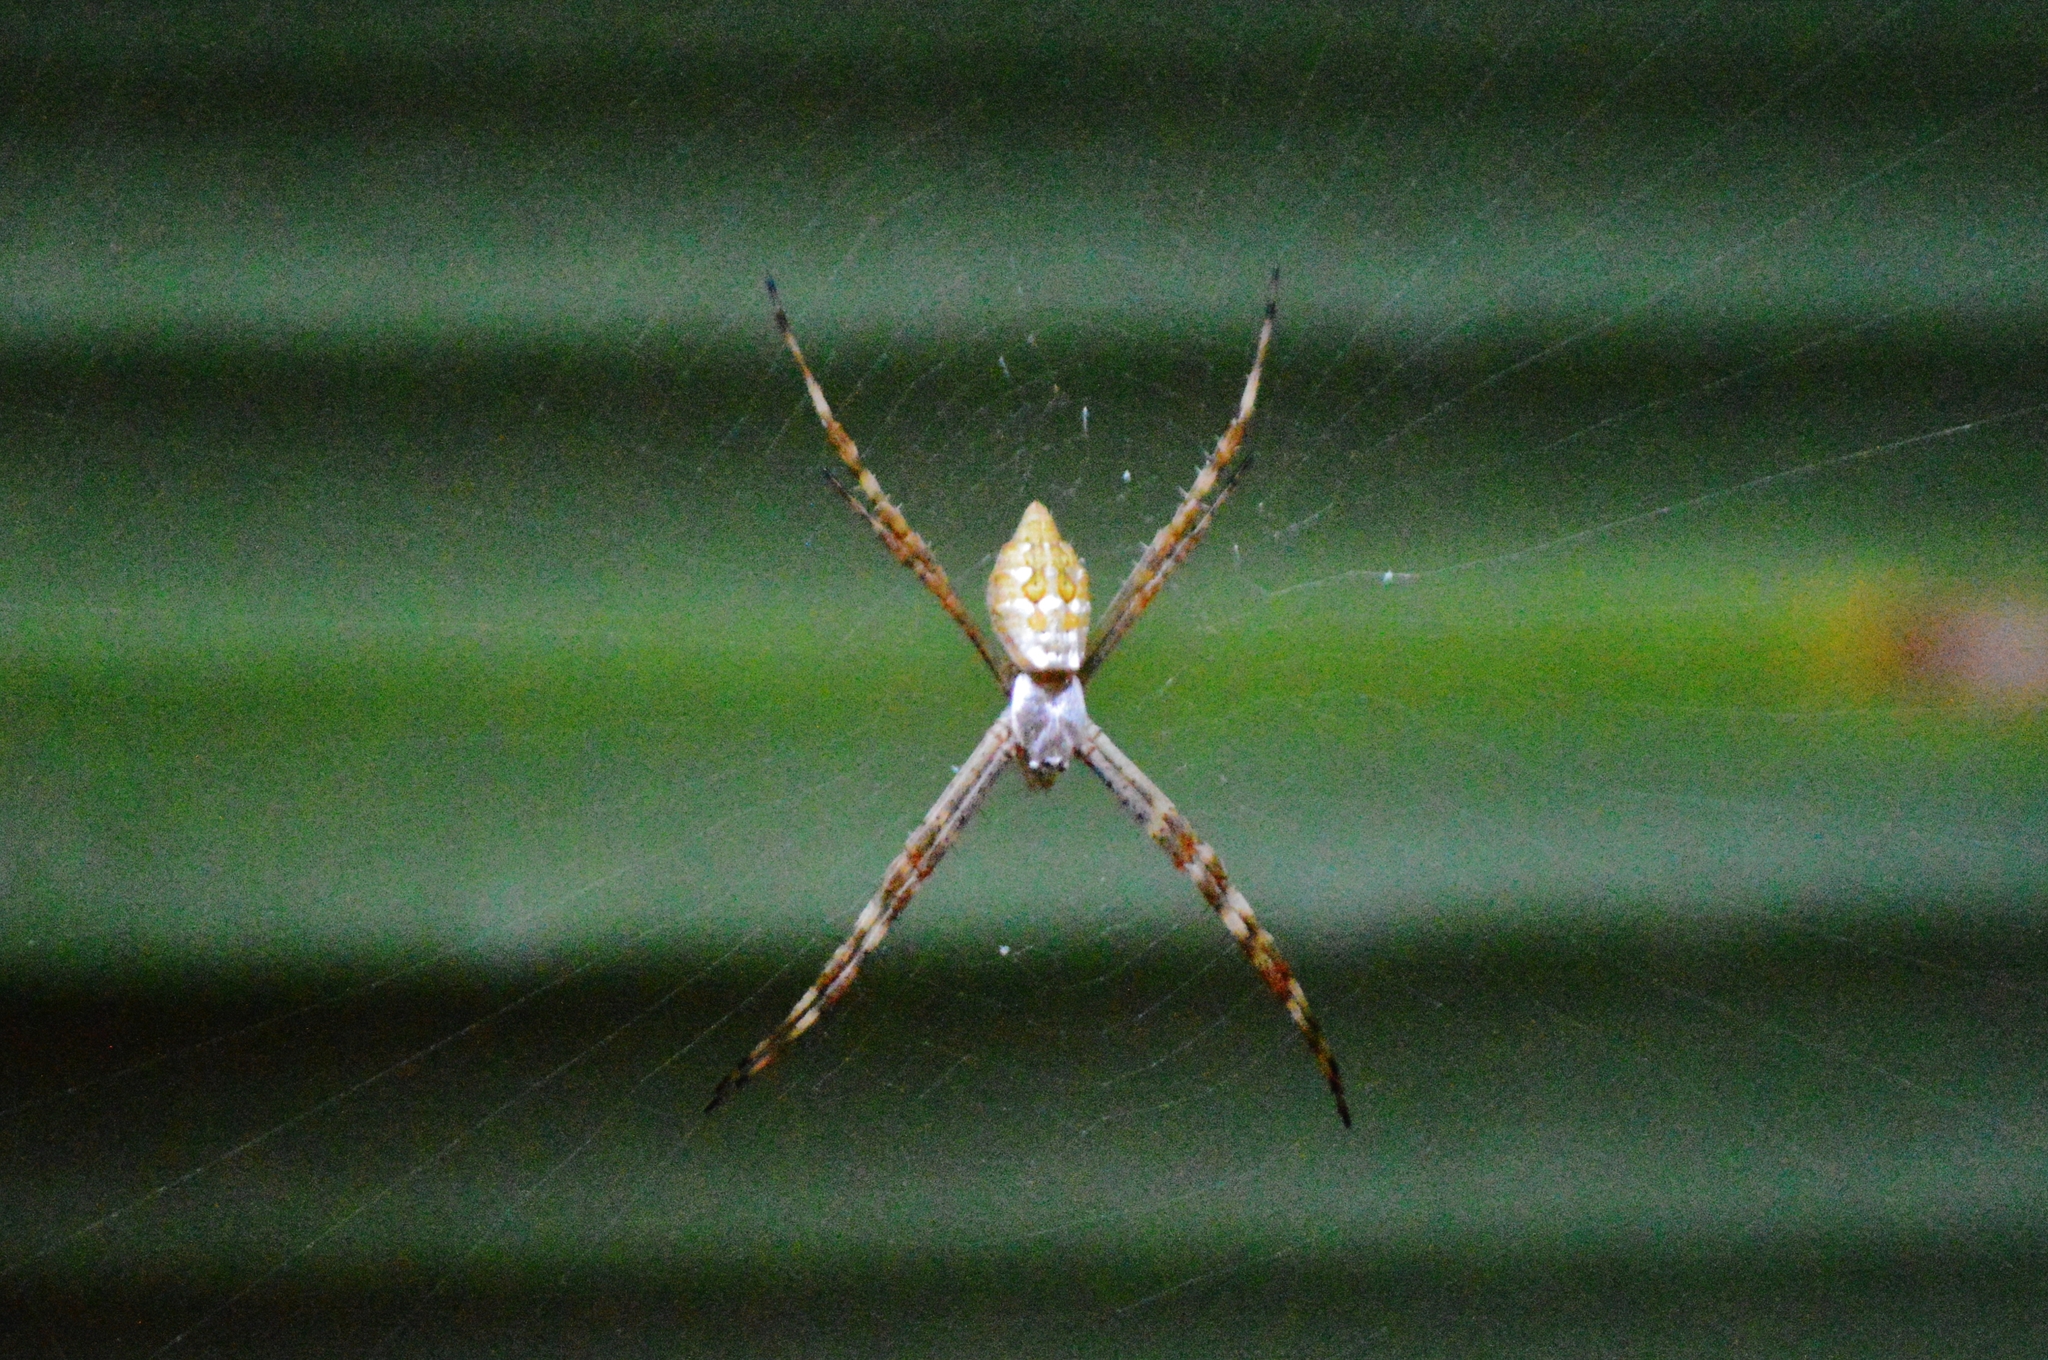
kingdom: Animalia
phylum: Arthropoda
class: Arachnida
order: Araneae
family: Araneidae
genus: Argiope
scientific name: Argiope argentata
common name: Orb weavers
